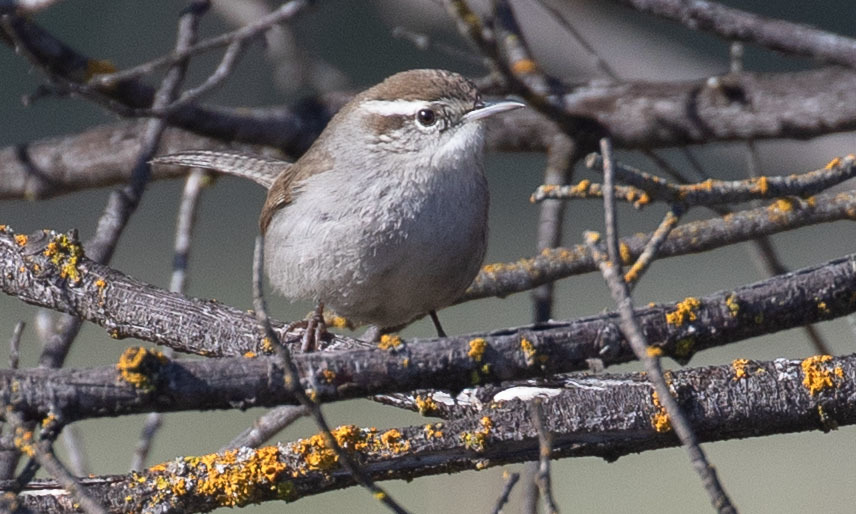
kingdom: Animalia
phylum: Chordata
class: Aves
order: Passeriformes
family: Troglodytidae
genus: Thryomanes
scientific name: Thryomanes bewickii
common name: Bewick's wren
